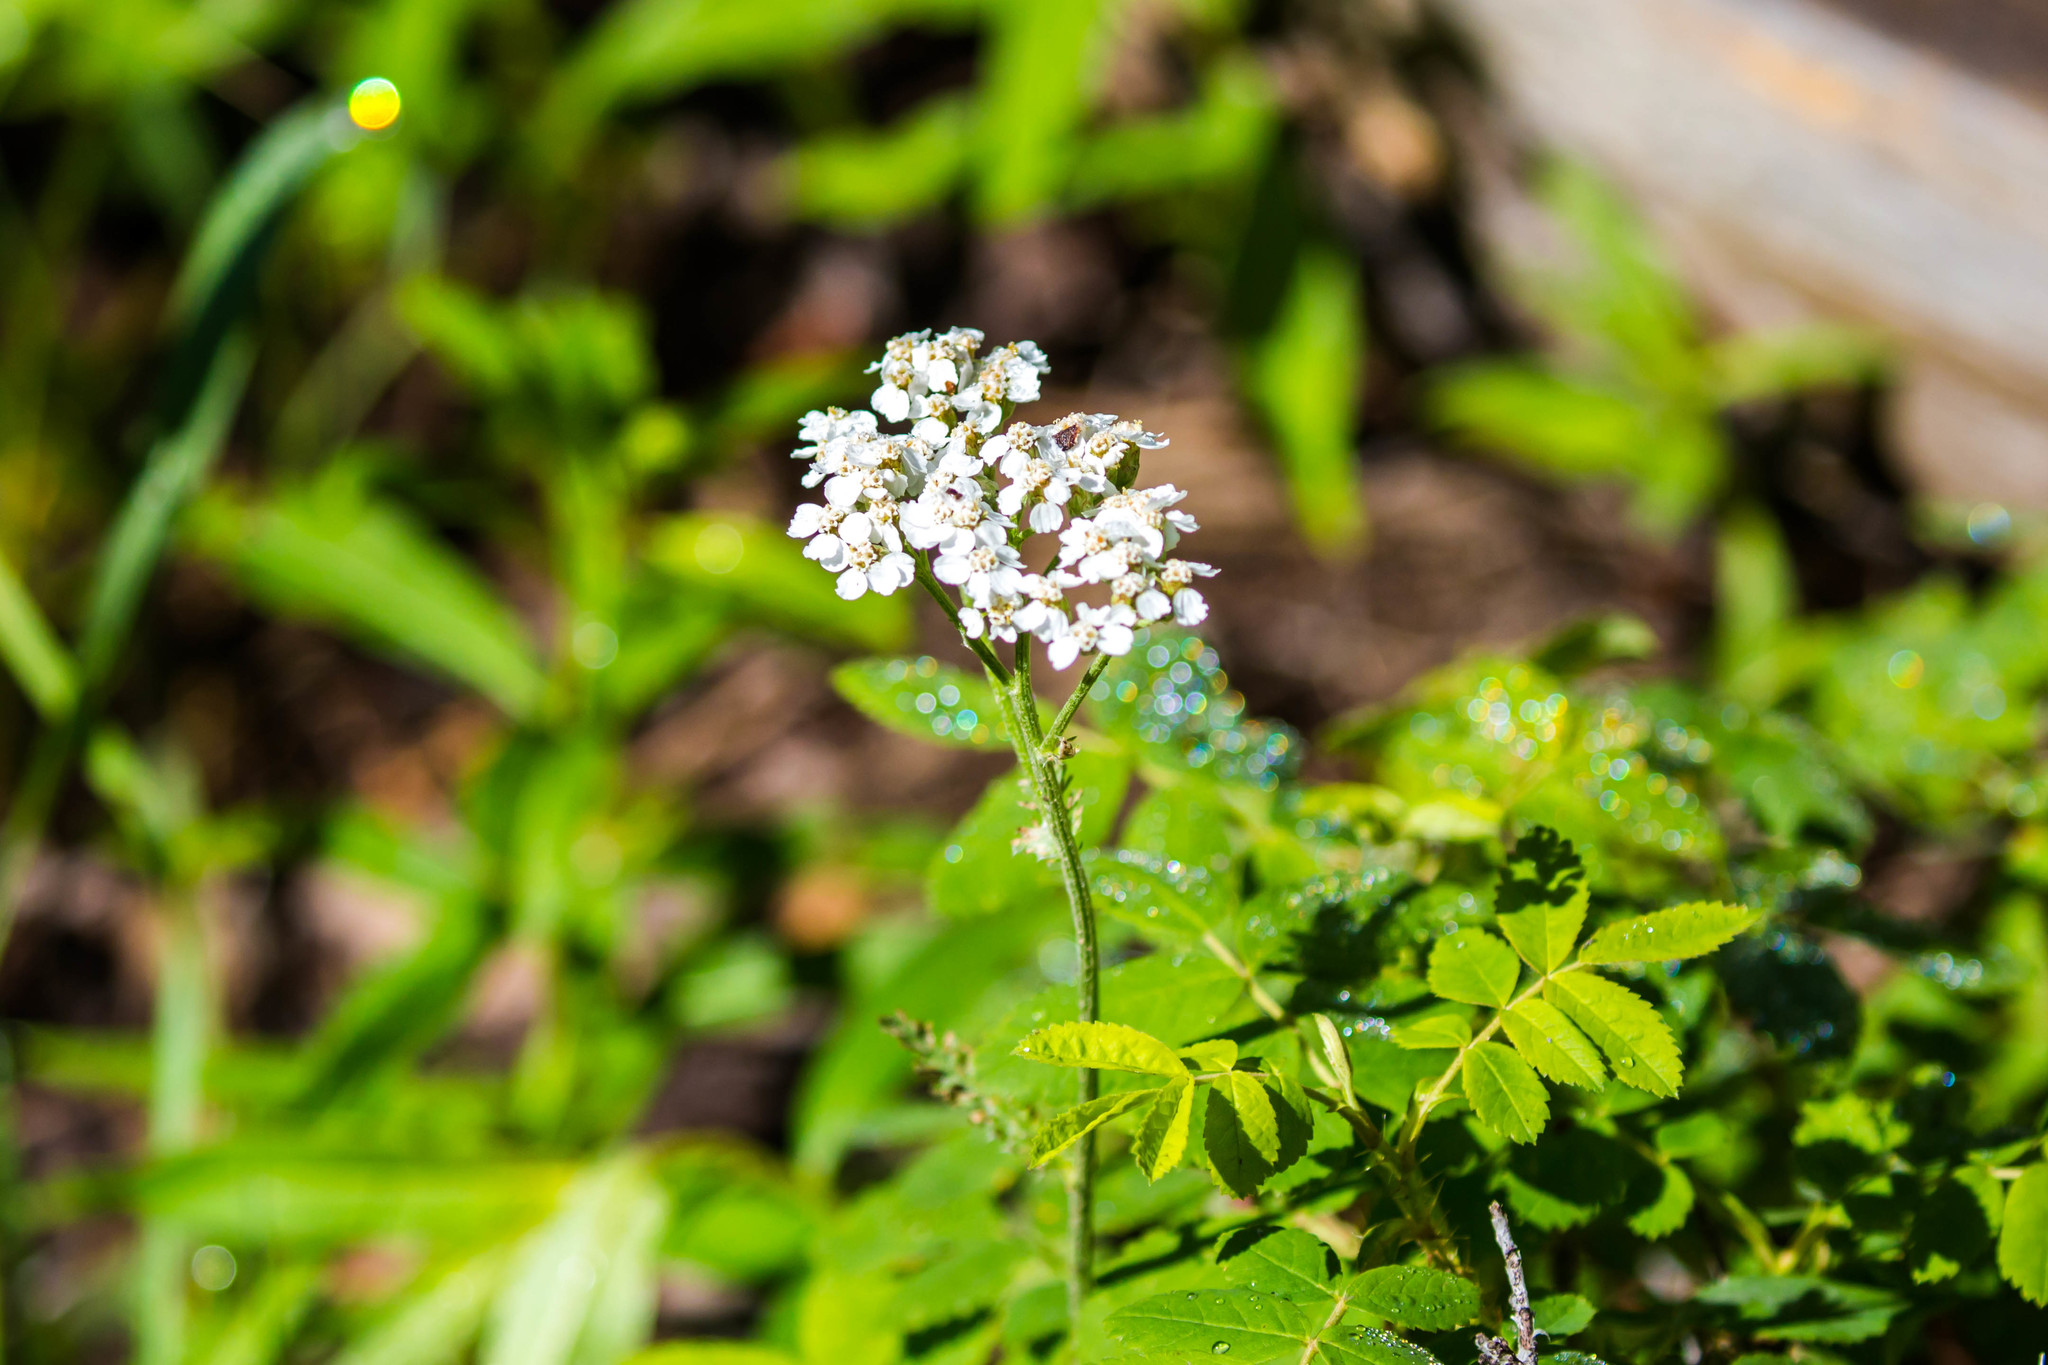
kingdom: Plantae
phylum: Tracheophyta
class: Magnoliopsida
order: Asterales
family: Asteraceae
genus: Achillea
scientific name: Achillea millefolium
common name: Yarrow
